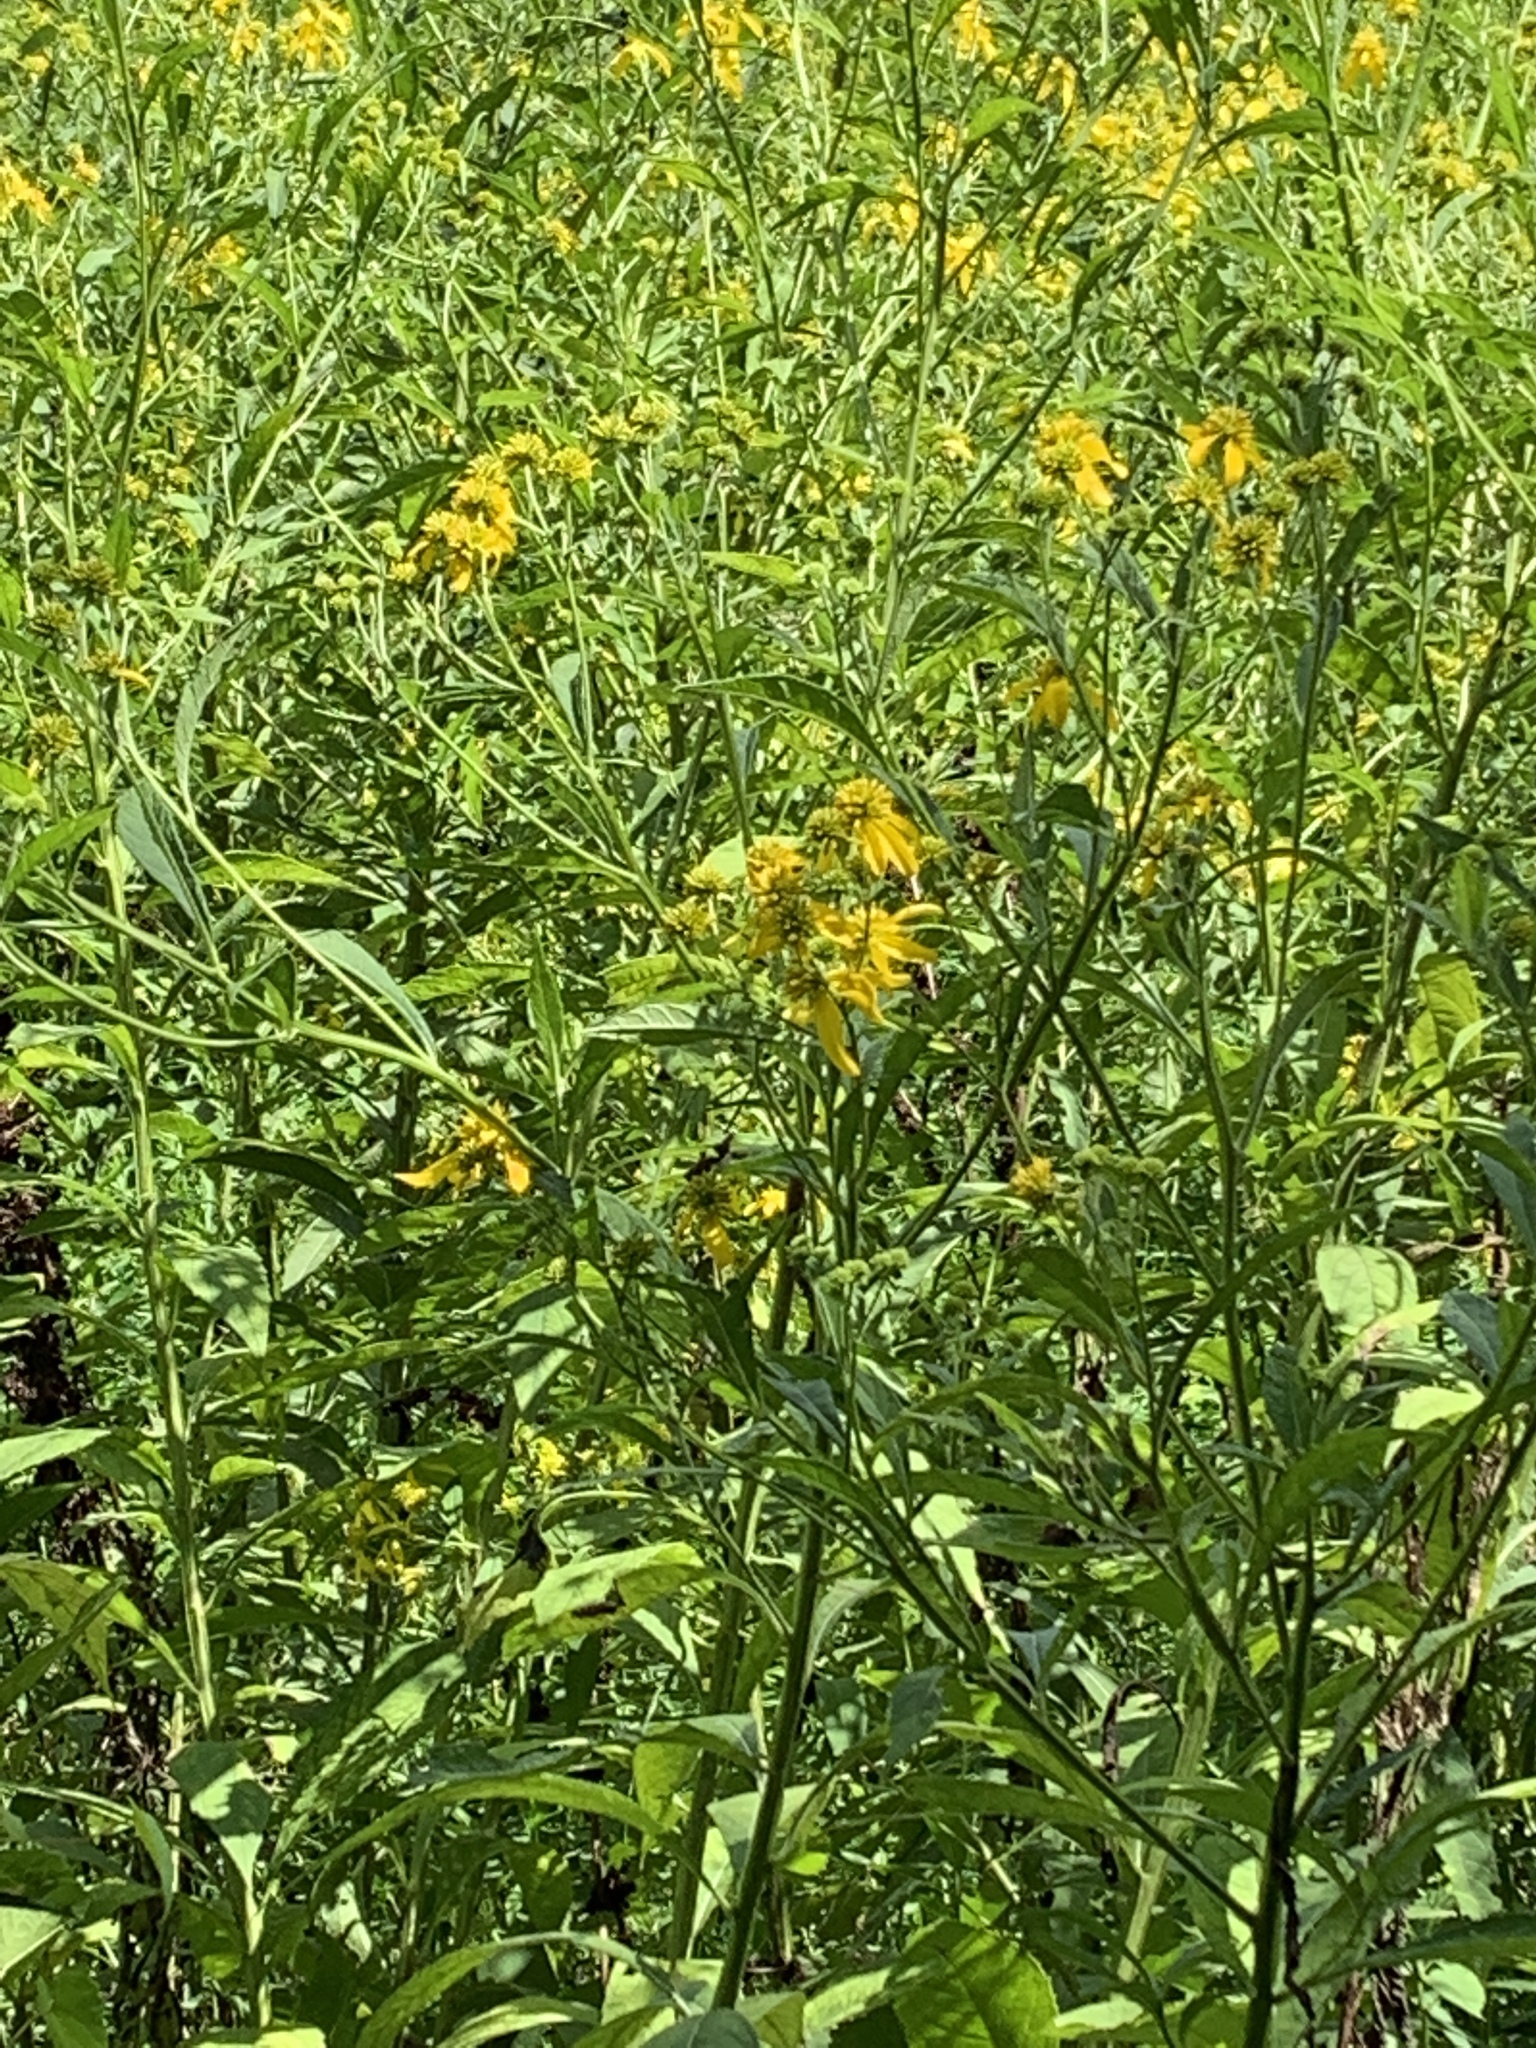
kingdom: Plantae
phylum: Tracheophyta
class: Magnoliopsida
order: Asterales
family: Asteraceae
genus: Verbesina
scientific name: Verbesina alternifolia
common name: Wingstem
